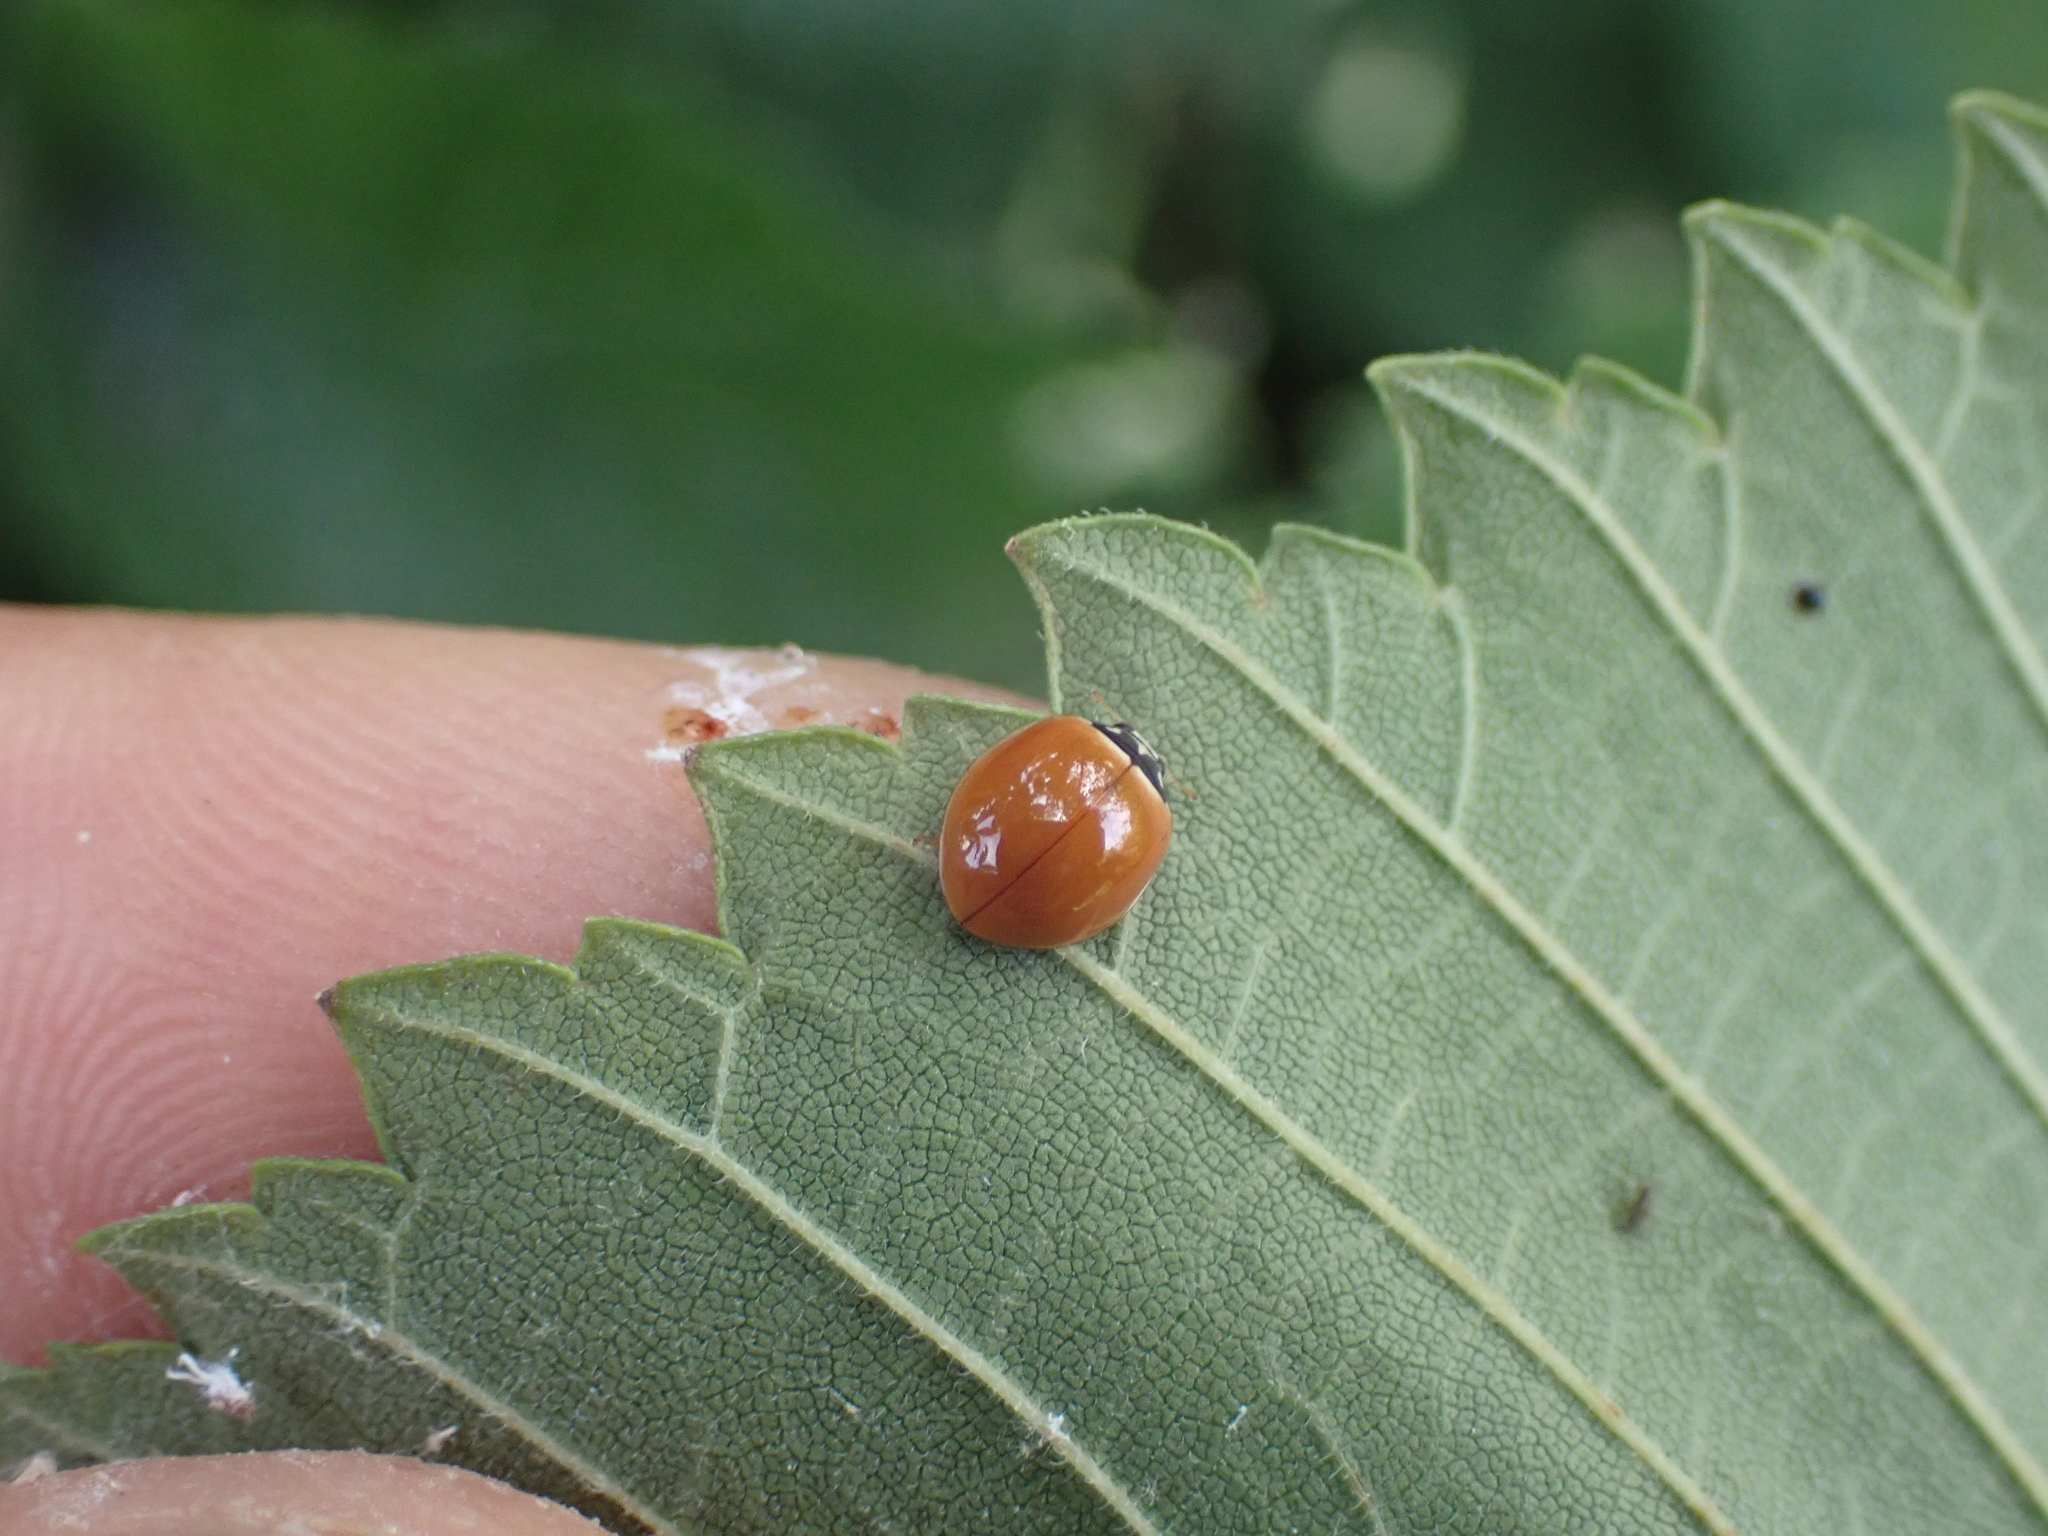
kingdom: Animalia
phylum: Arthropoda
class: Insecta
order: Coleoptera
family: Coccinellidae
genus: Cycloneda
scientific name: Cycloneda munda
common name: Polished lady beetle
